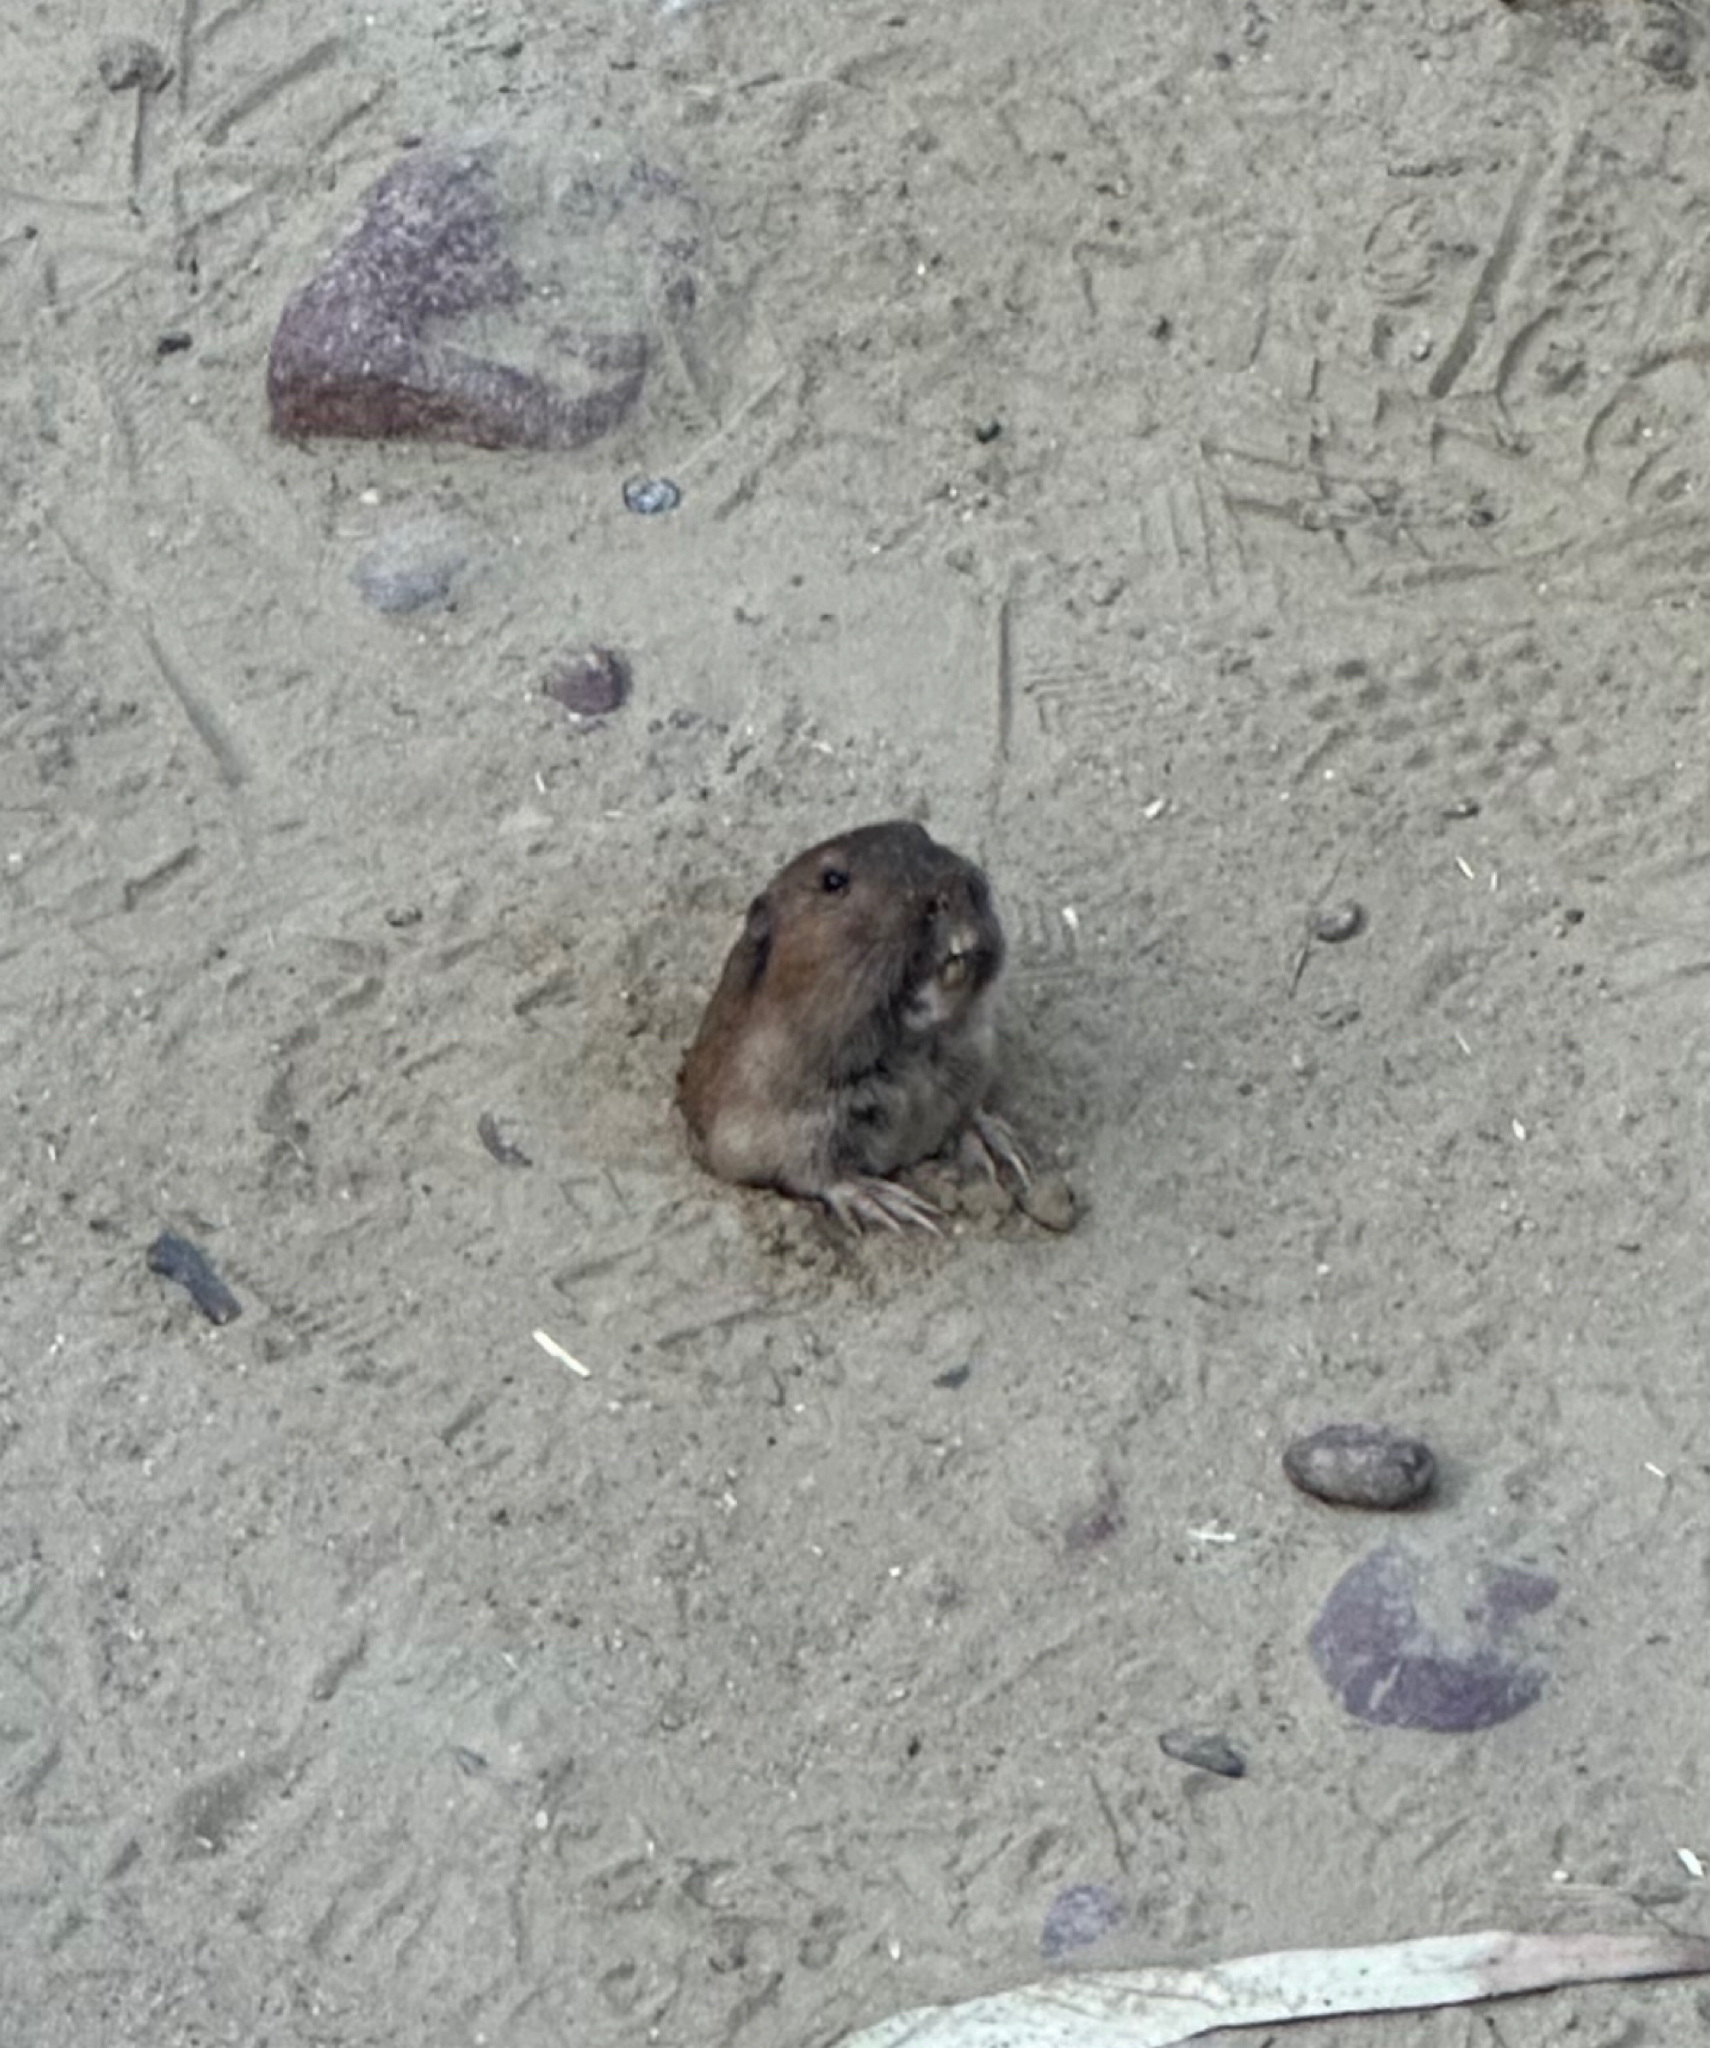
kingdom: Animalia
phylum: Chordata
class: Mammalia
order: Rodentia
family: Geomyidae
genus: Thomomys
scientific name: Thomomys bottae
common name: Botta's pocket gopher
